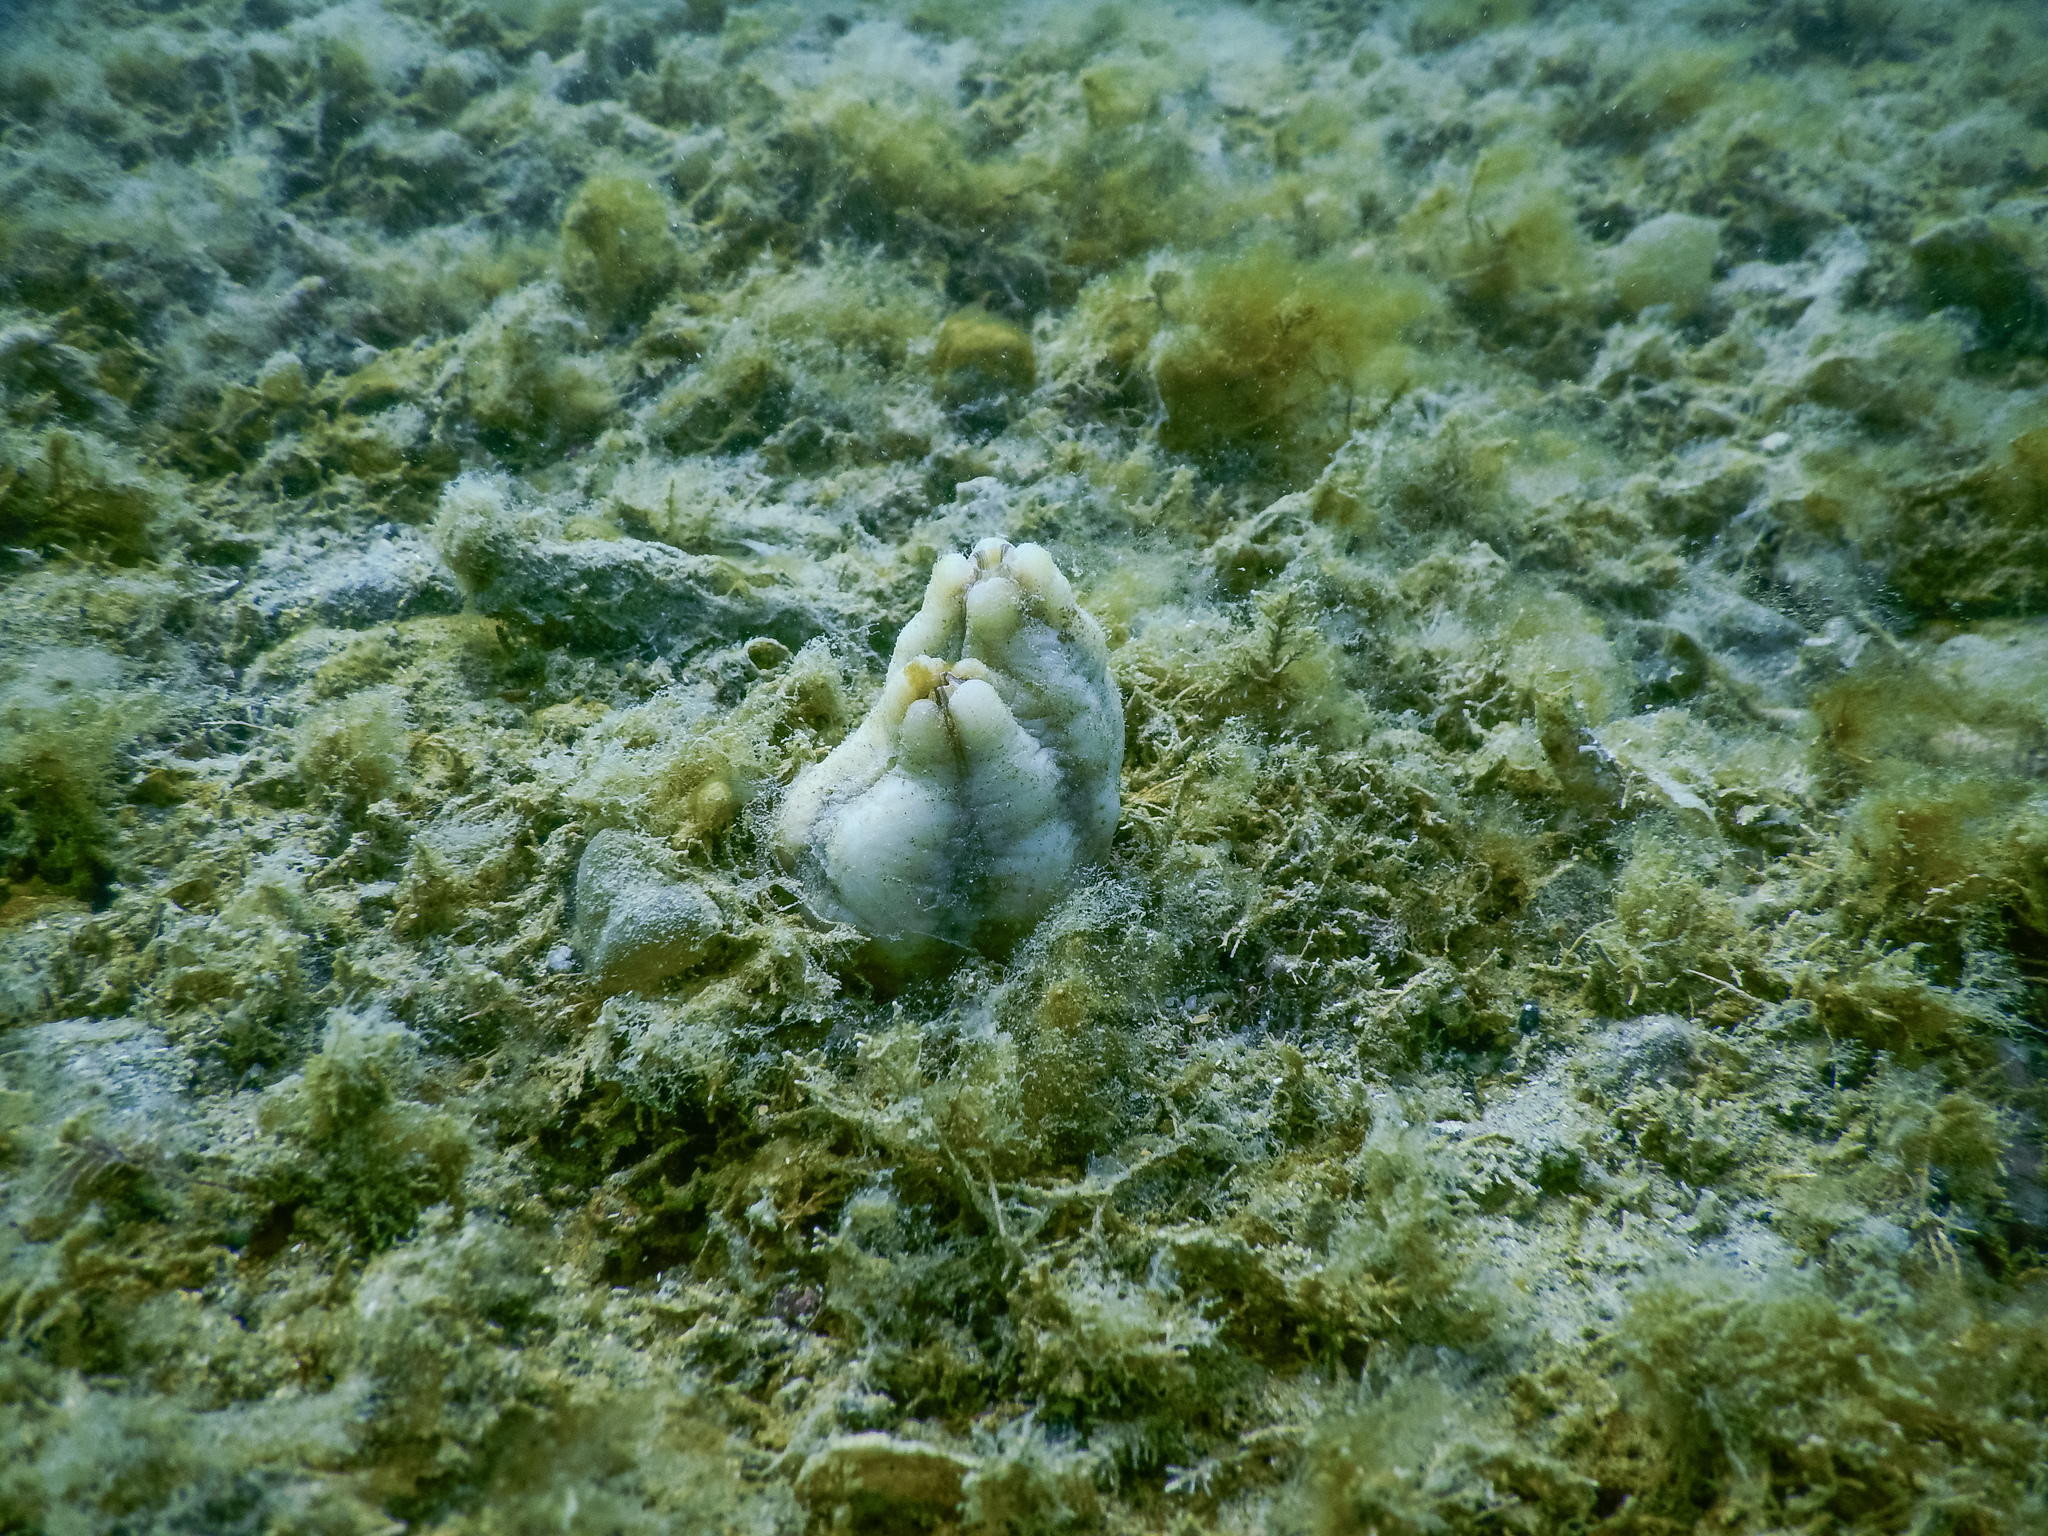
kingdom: Animalia
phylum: Chordata
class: Ascidiacea
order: Stolidobranchia
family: Styelidae
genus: Styela
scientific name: Styela plicata
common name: Pleated tunicate
